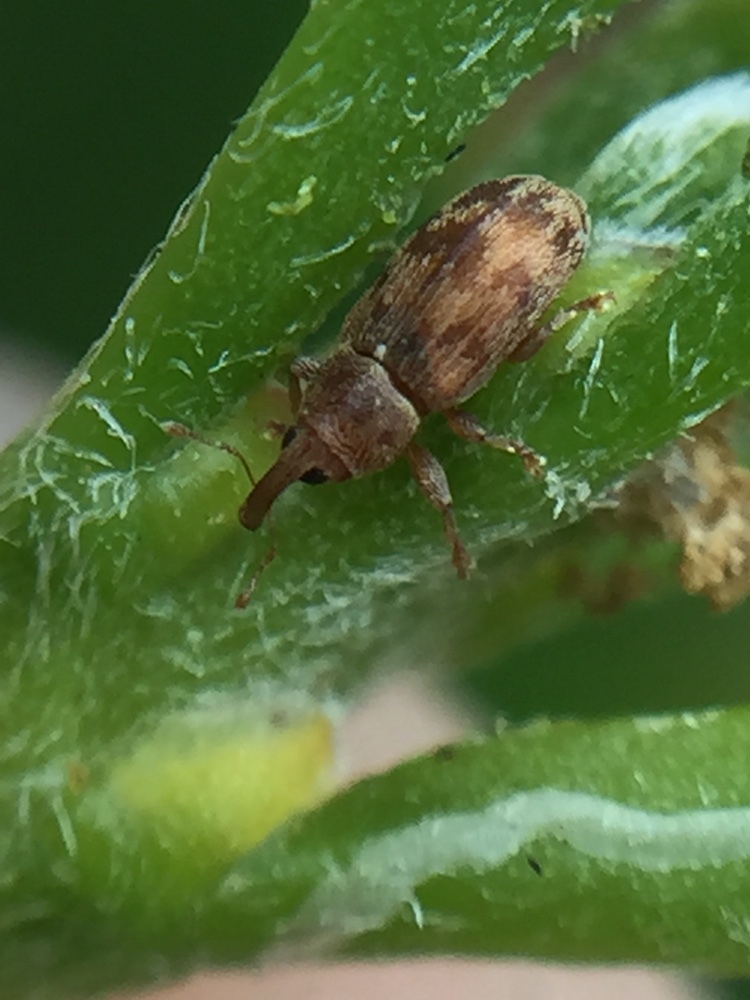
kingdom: Animalia
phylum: Arthropoda
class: Insecta
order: Coleoptera
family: Curculionidae
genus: Epamoebus
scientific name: Epamoebus ziczac
